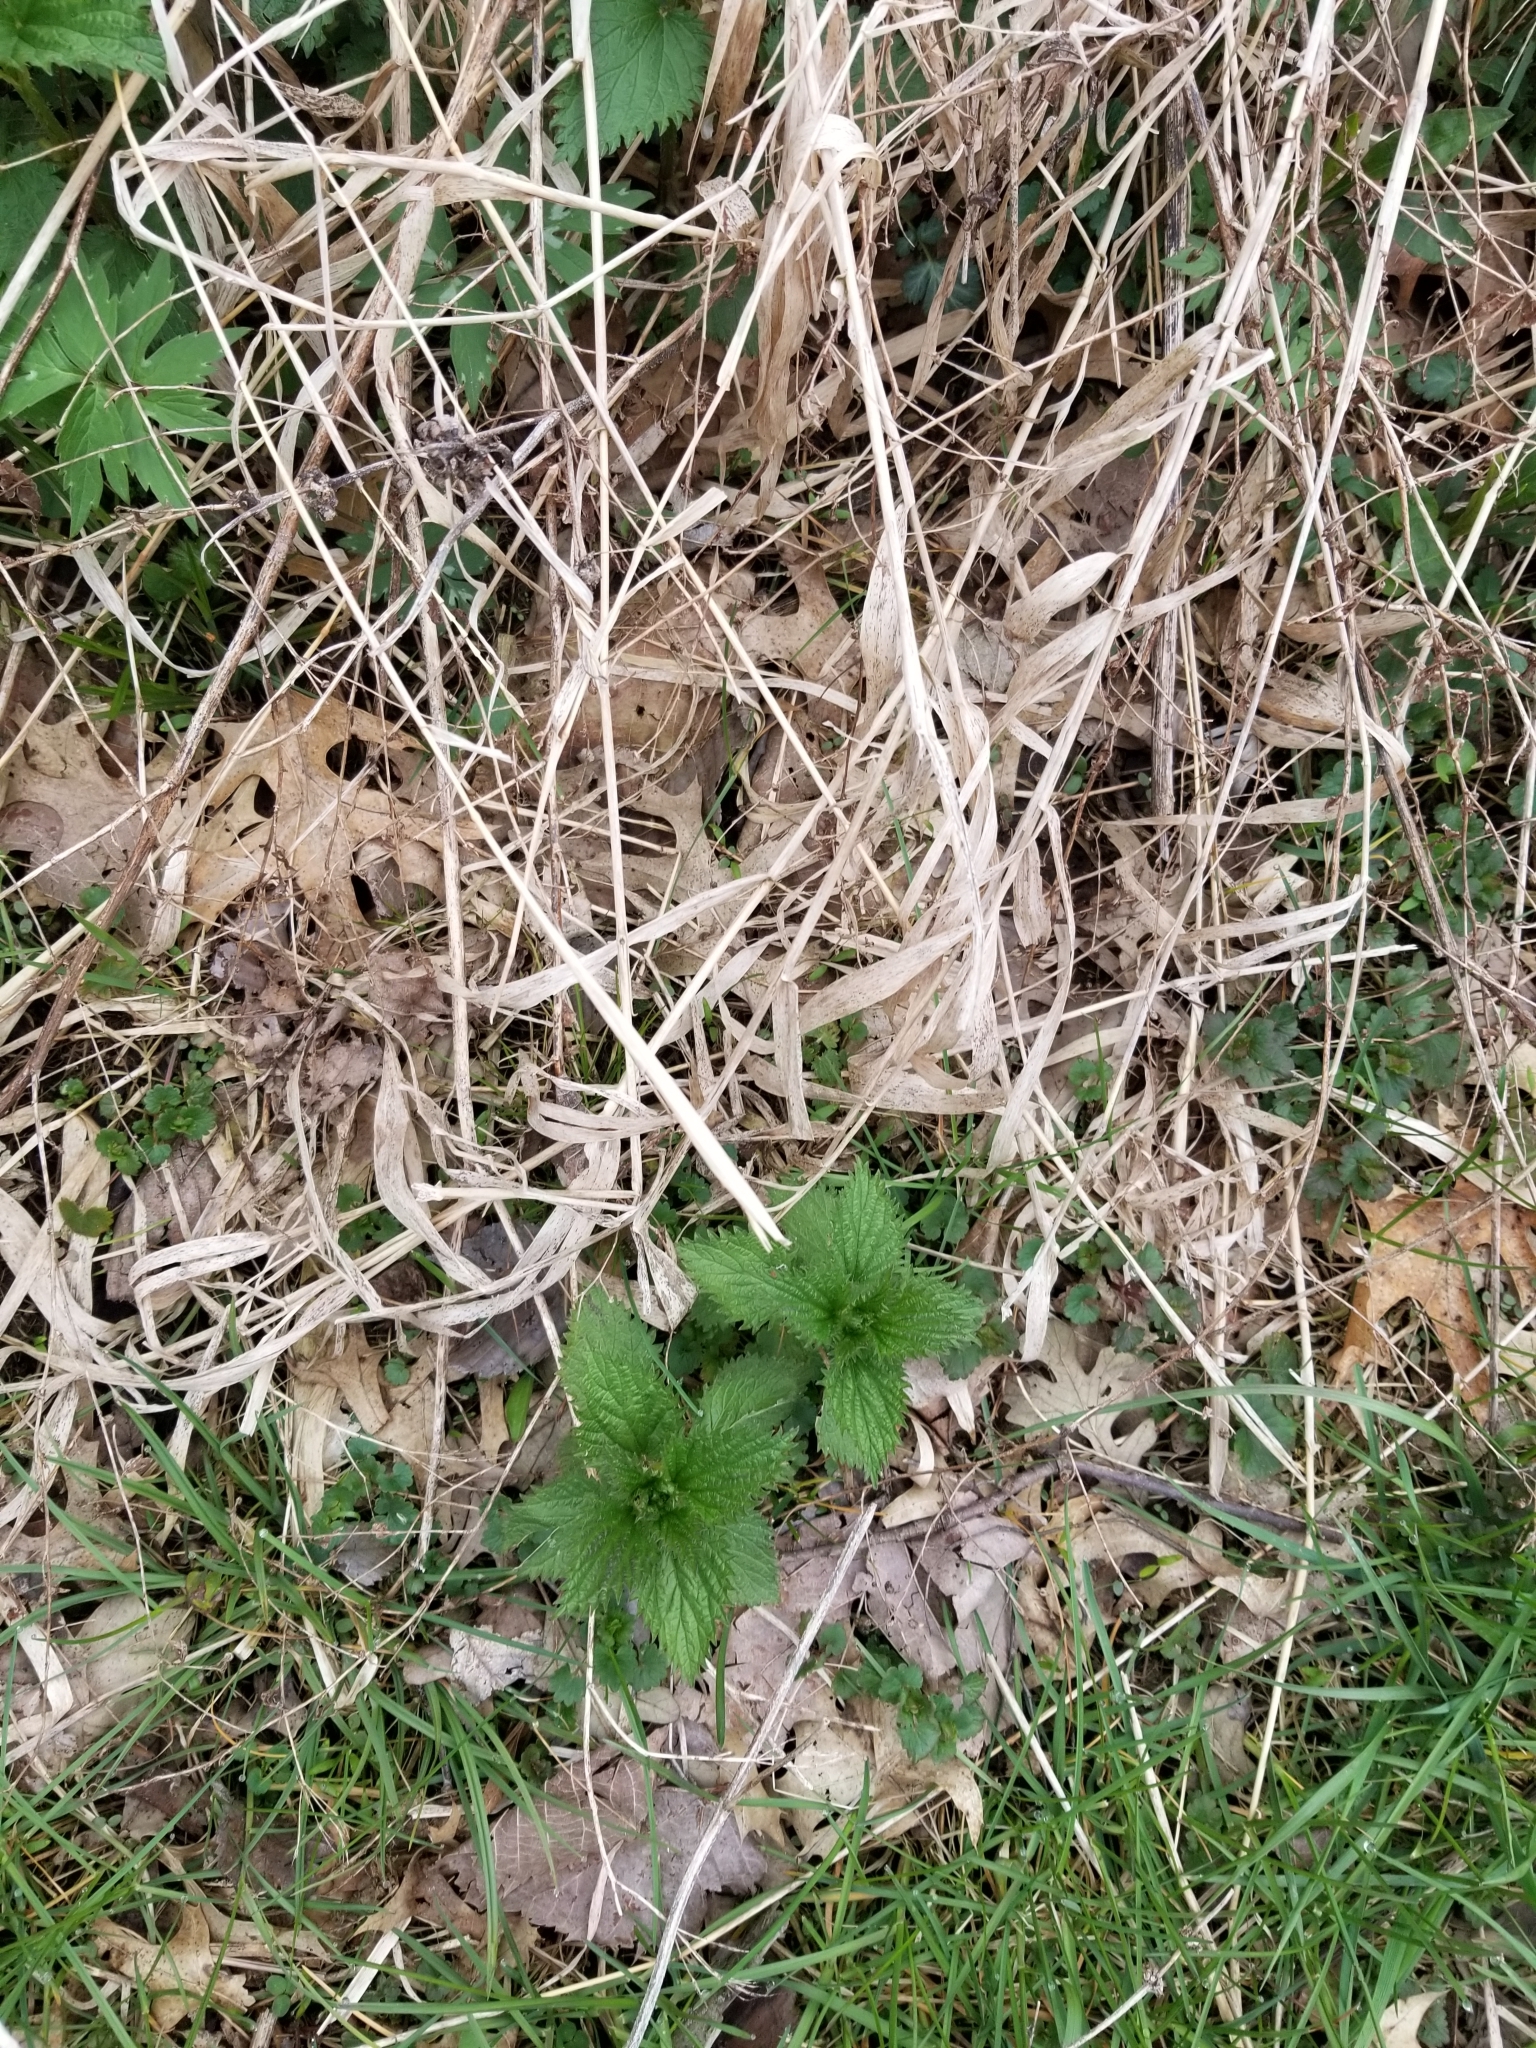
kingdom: Plantae
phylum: Tracheophyta
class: Magnoliopsida
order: Rosales
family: Urticaceae
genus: Urtica
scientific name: Urtica dioica
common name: Common nettle
